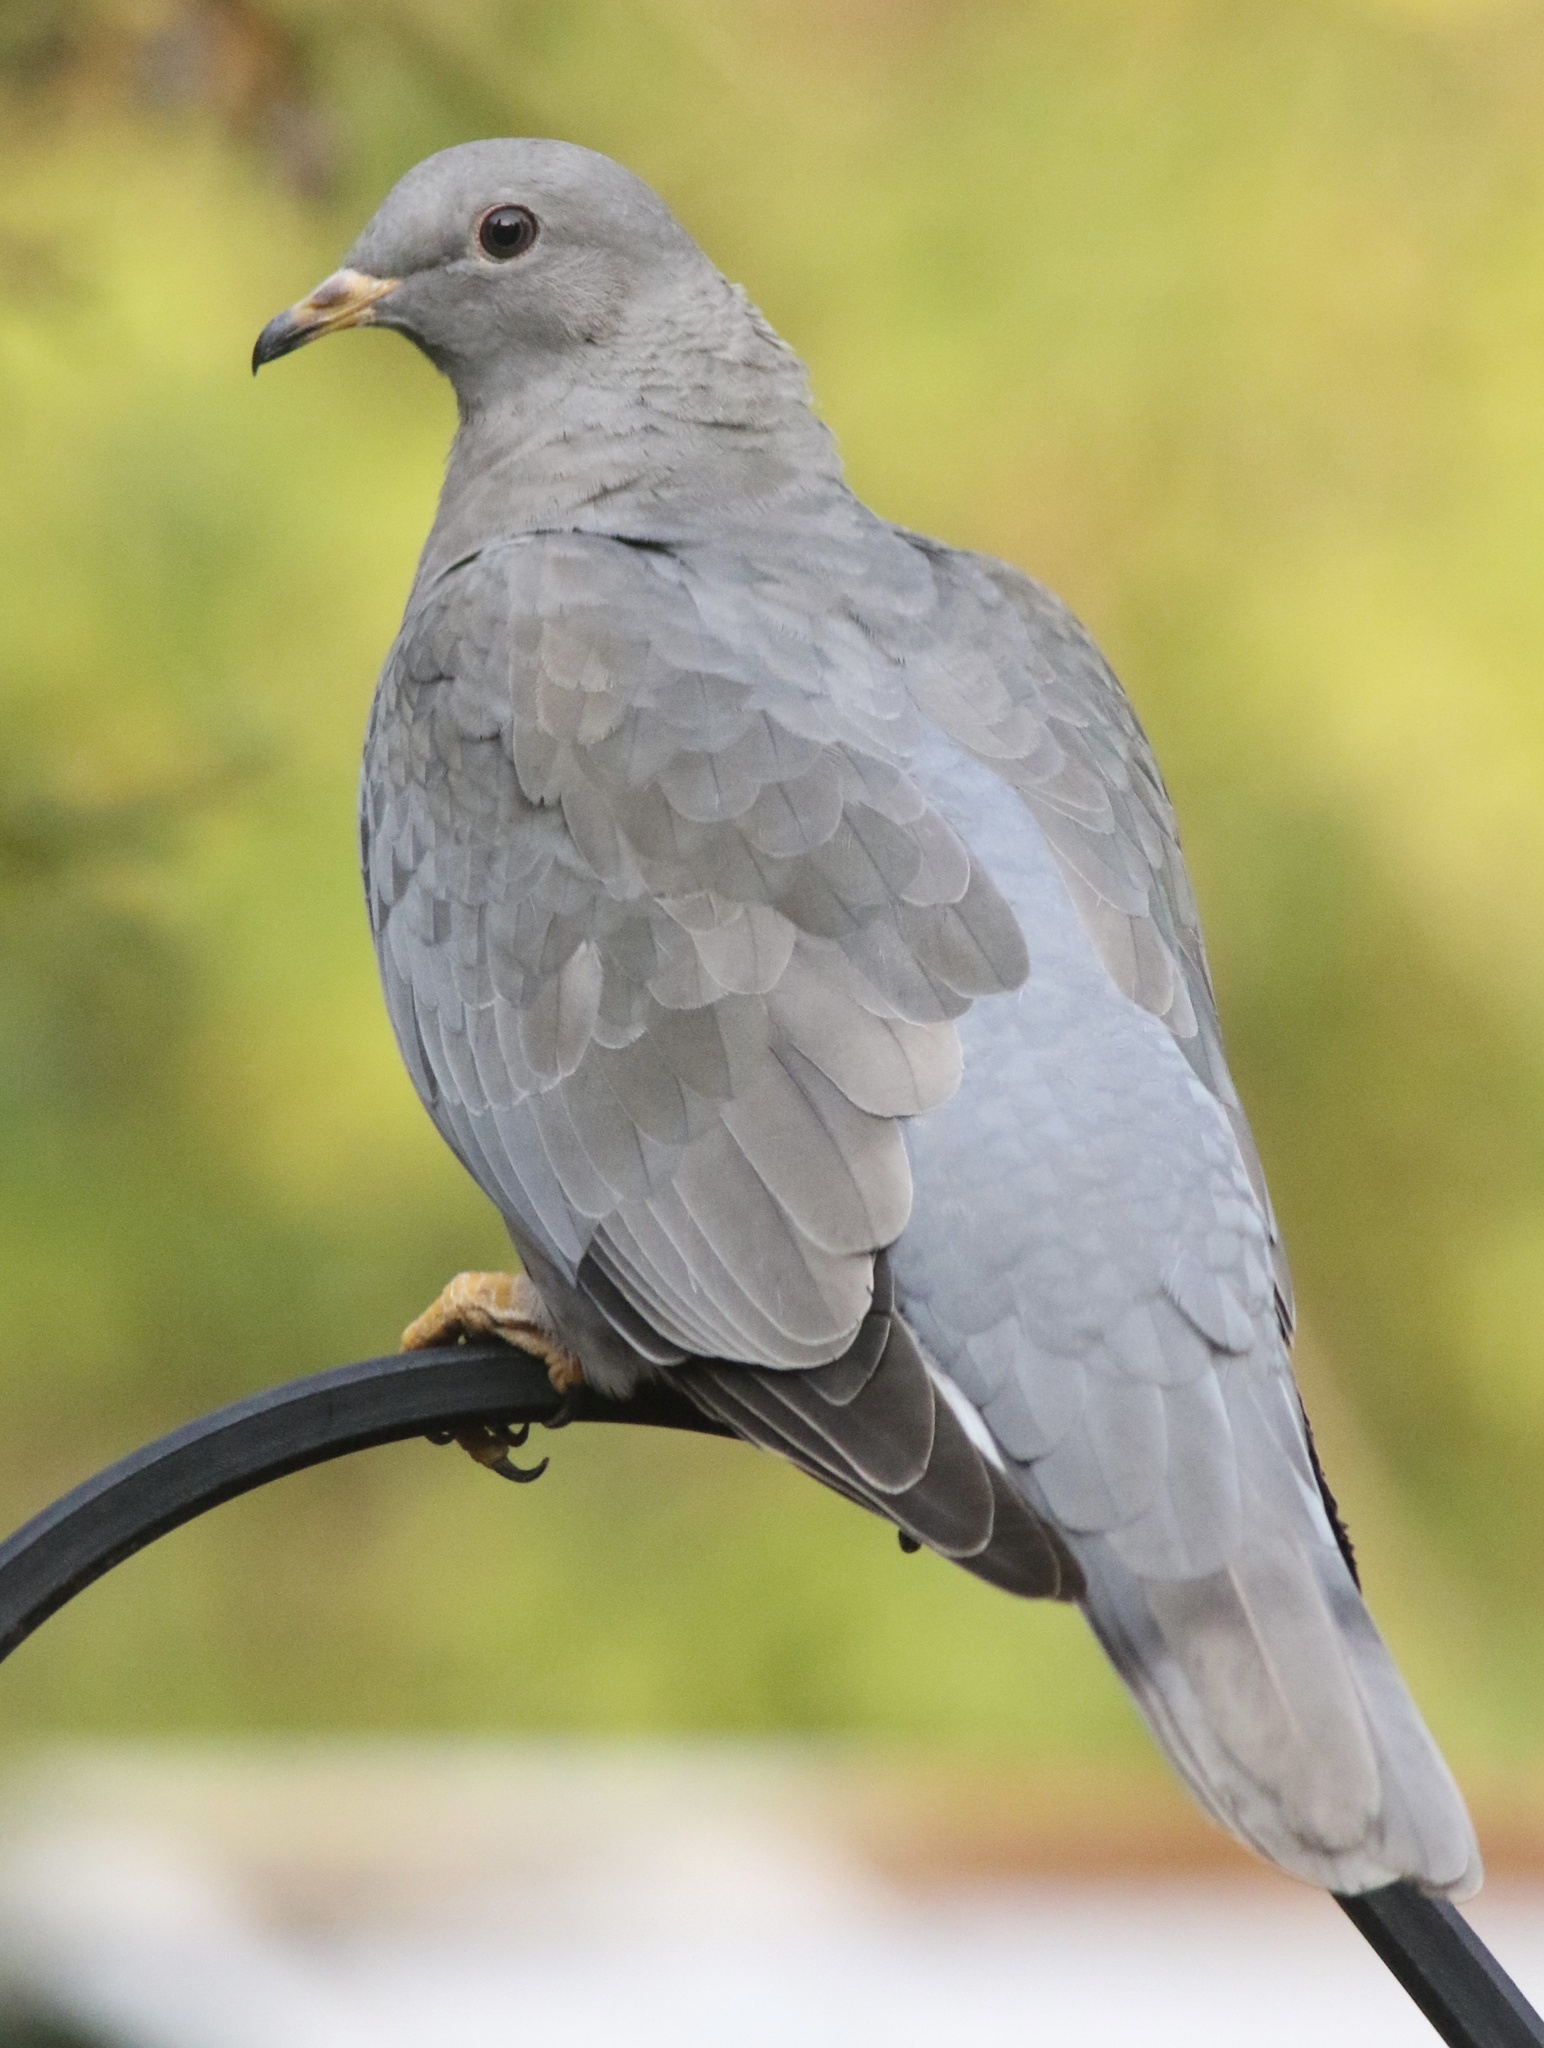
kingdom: Animalia
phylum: Chordata
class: Aves
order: Columbiformes
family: Columbidae
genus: Patagioenas
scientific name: Patagioenas fasciata
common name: Band-tailed pigeon
